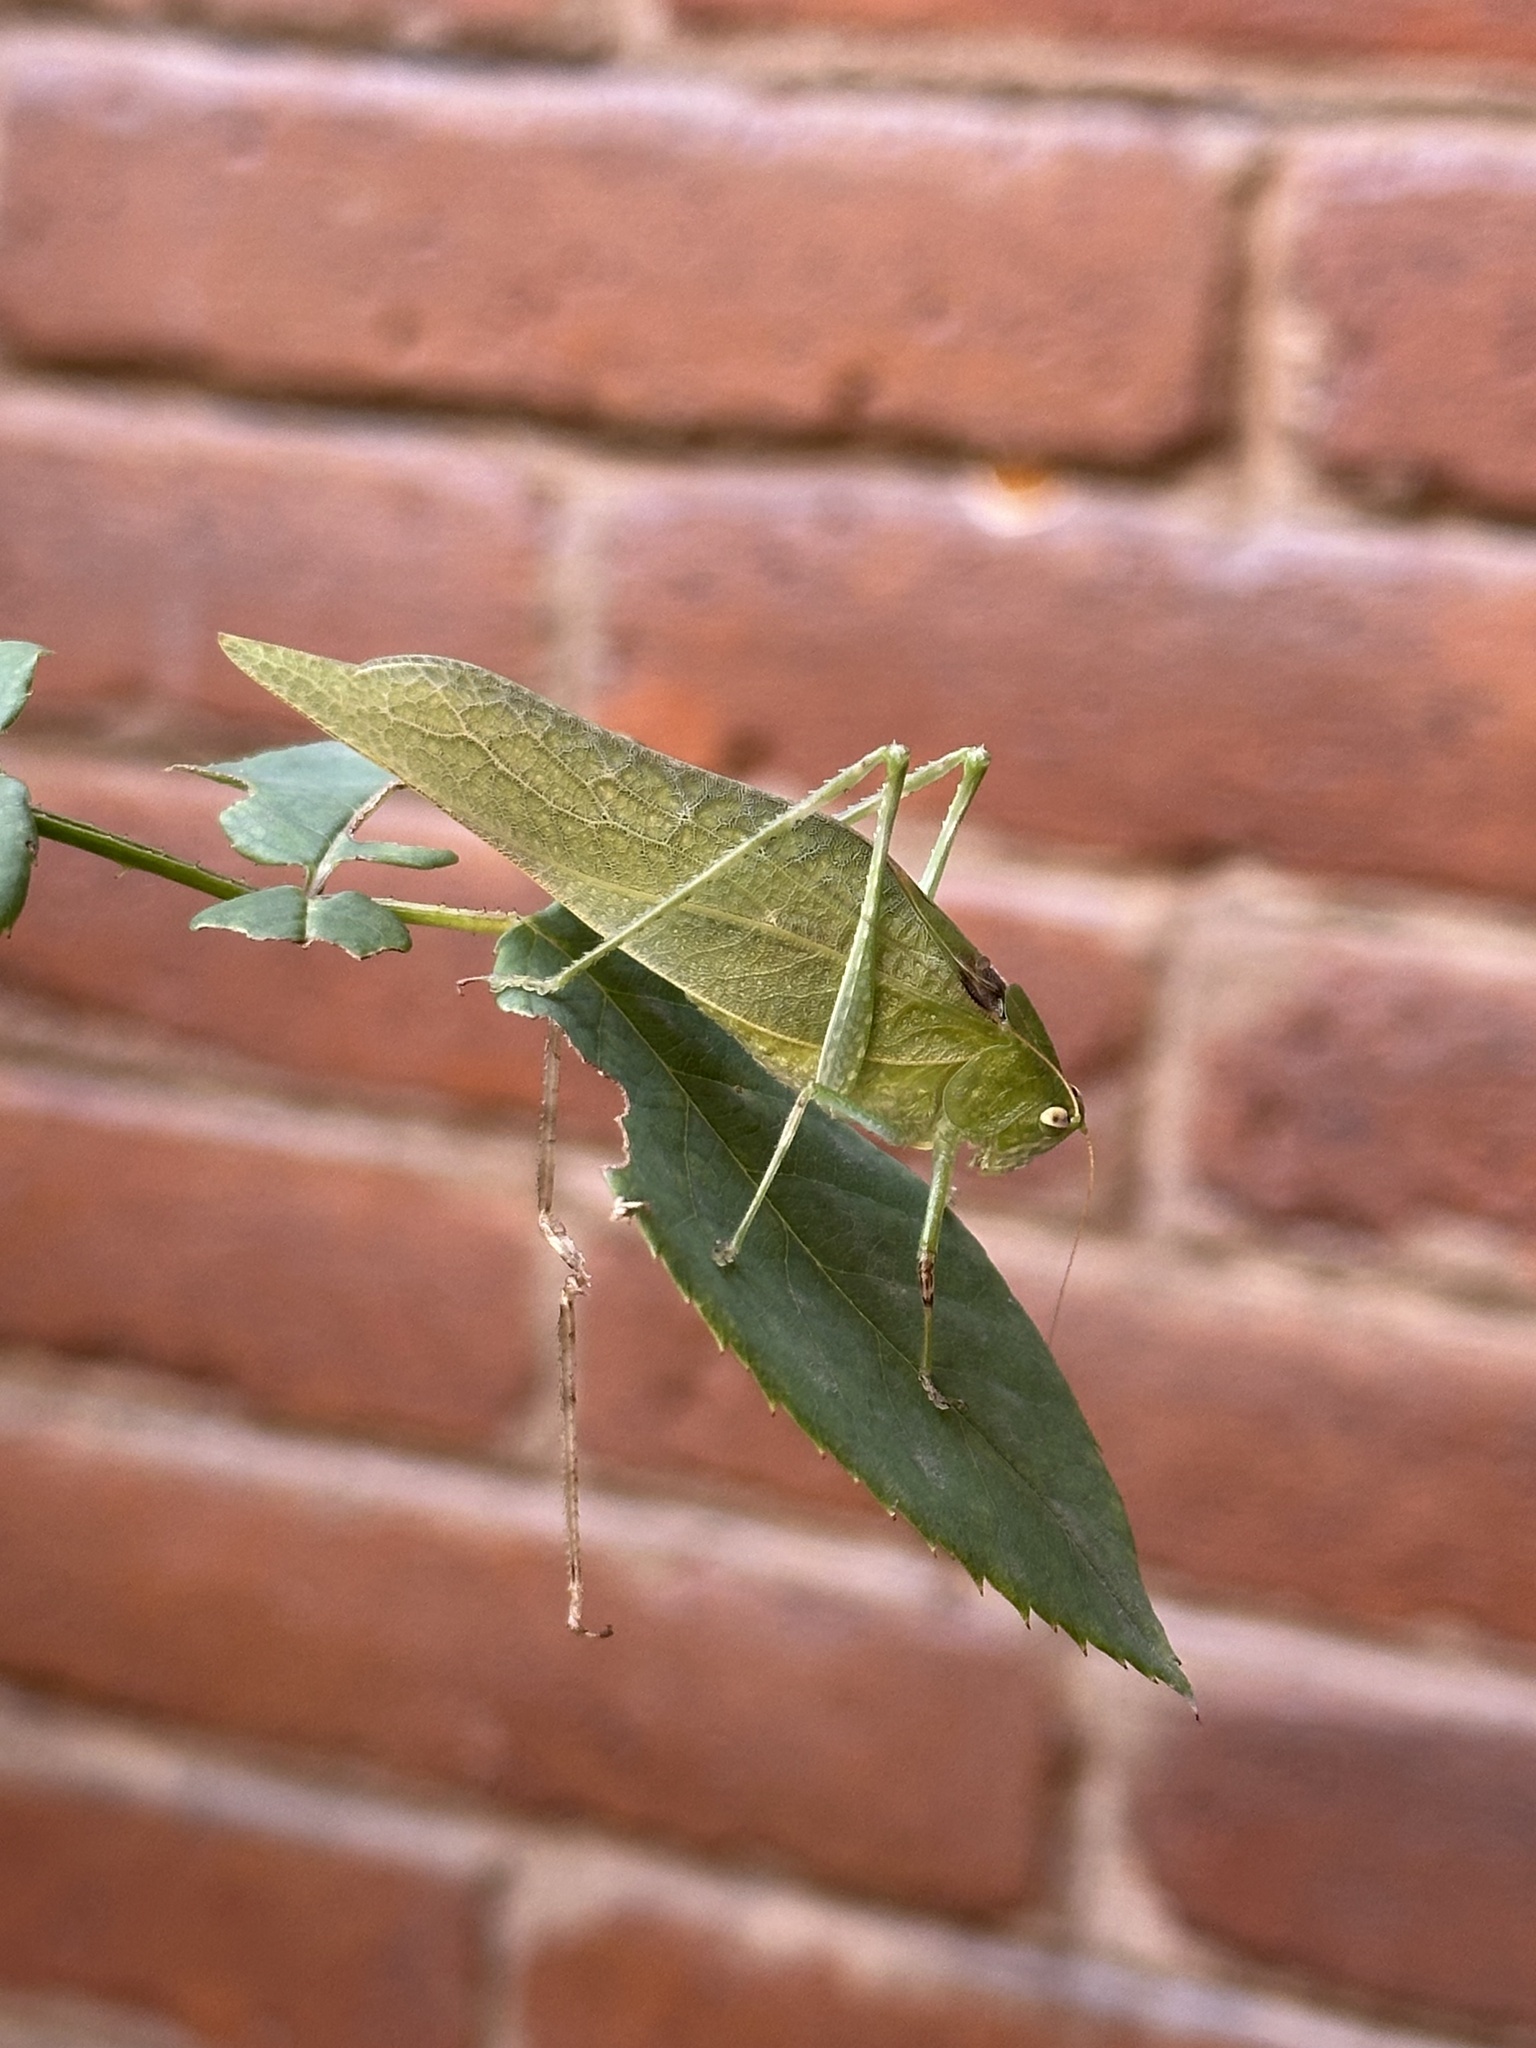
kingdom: Animalia
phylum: Arthropoda
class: Insecta
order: Orthoptera
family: Tettigoniidae
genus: Syntechna
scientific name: Syntechna tarasca
